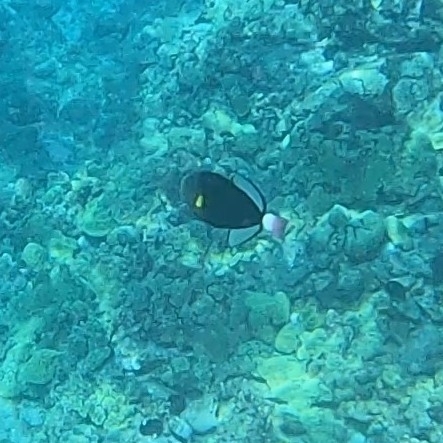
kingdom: Animalia
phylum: Chordata
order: Tetraodontiformes
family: Balistidae
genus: Melichthys
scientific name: Melichthys vidua
